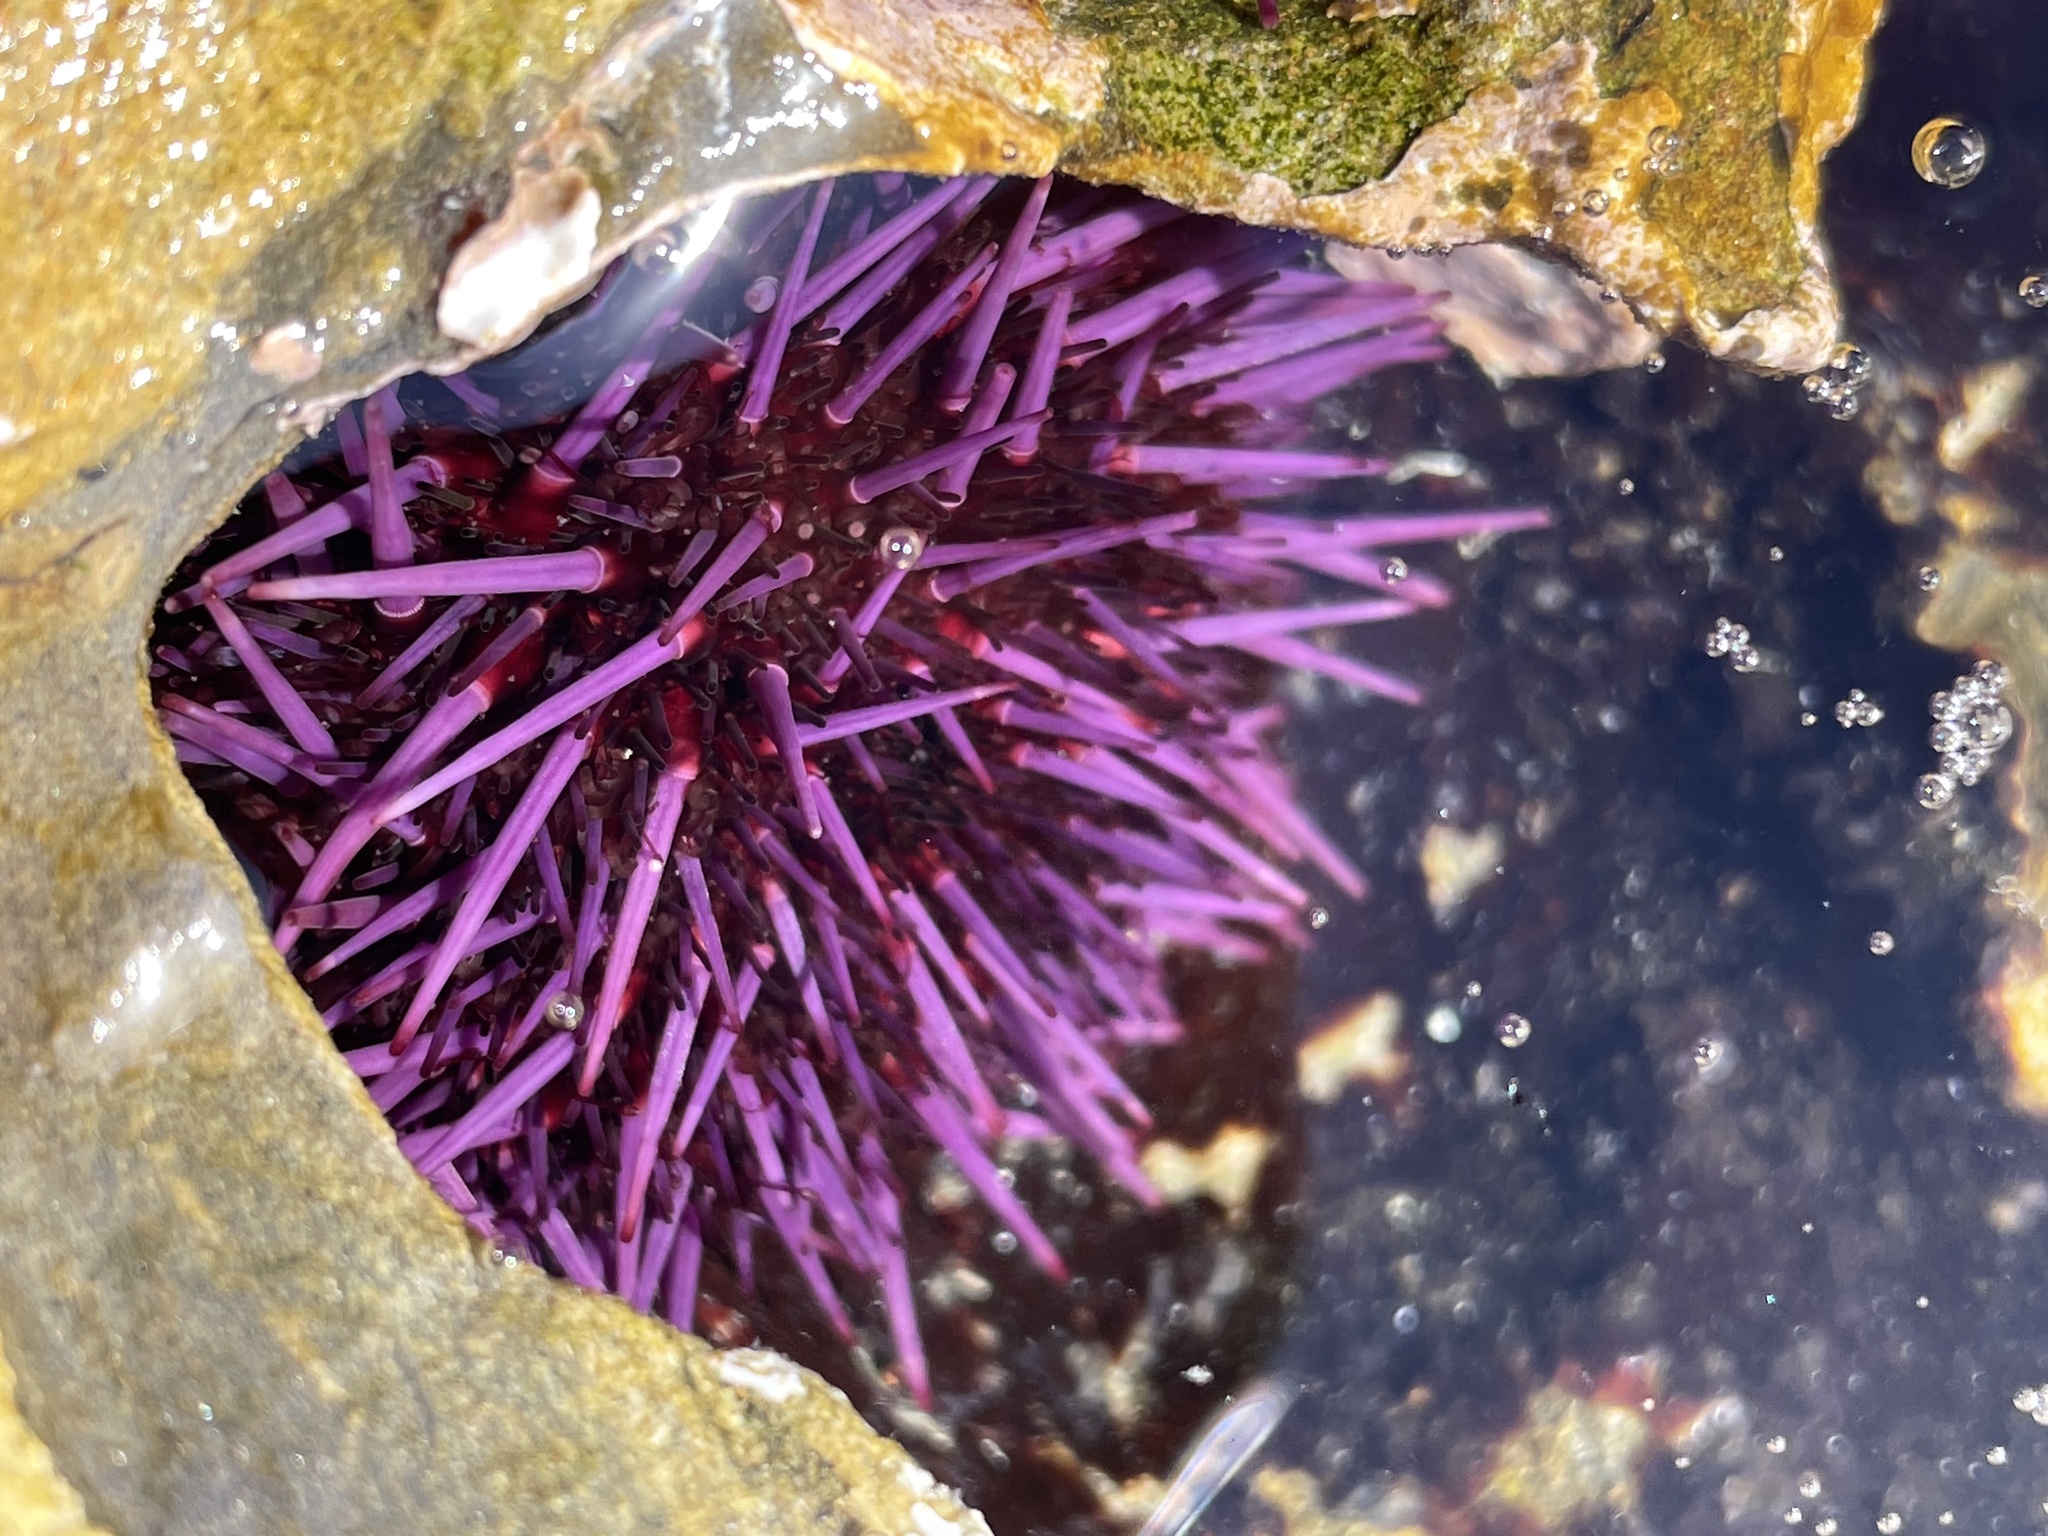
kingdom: Animalia
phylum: Echinodermata
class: Echinoidea
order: Camarodonta
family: Strongylocentrotidae
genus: Strongylocentrotus
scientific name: Strongylocentrotus purpuratus
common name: Purple sea urchin
